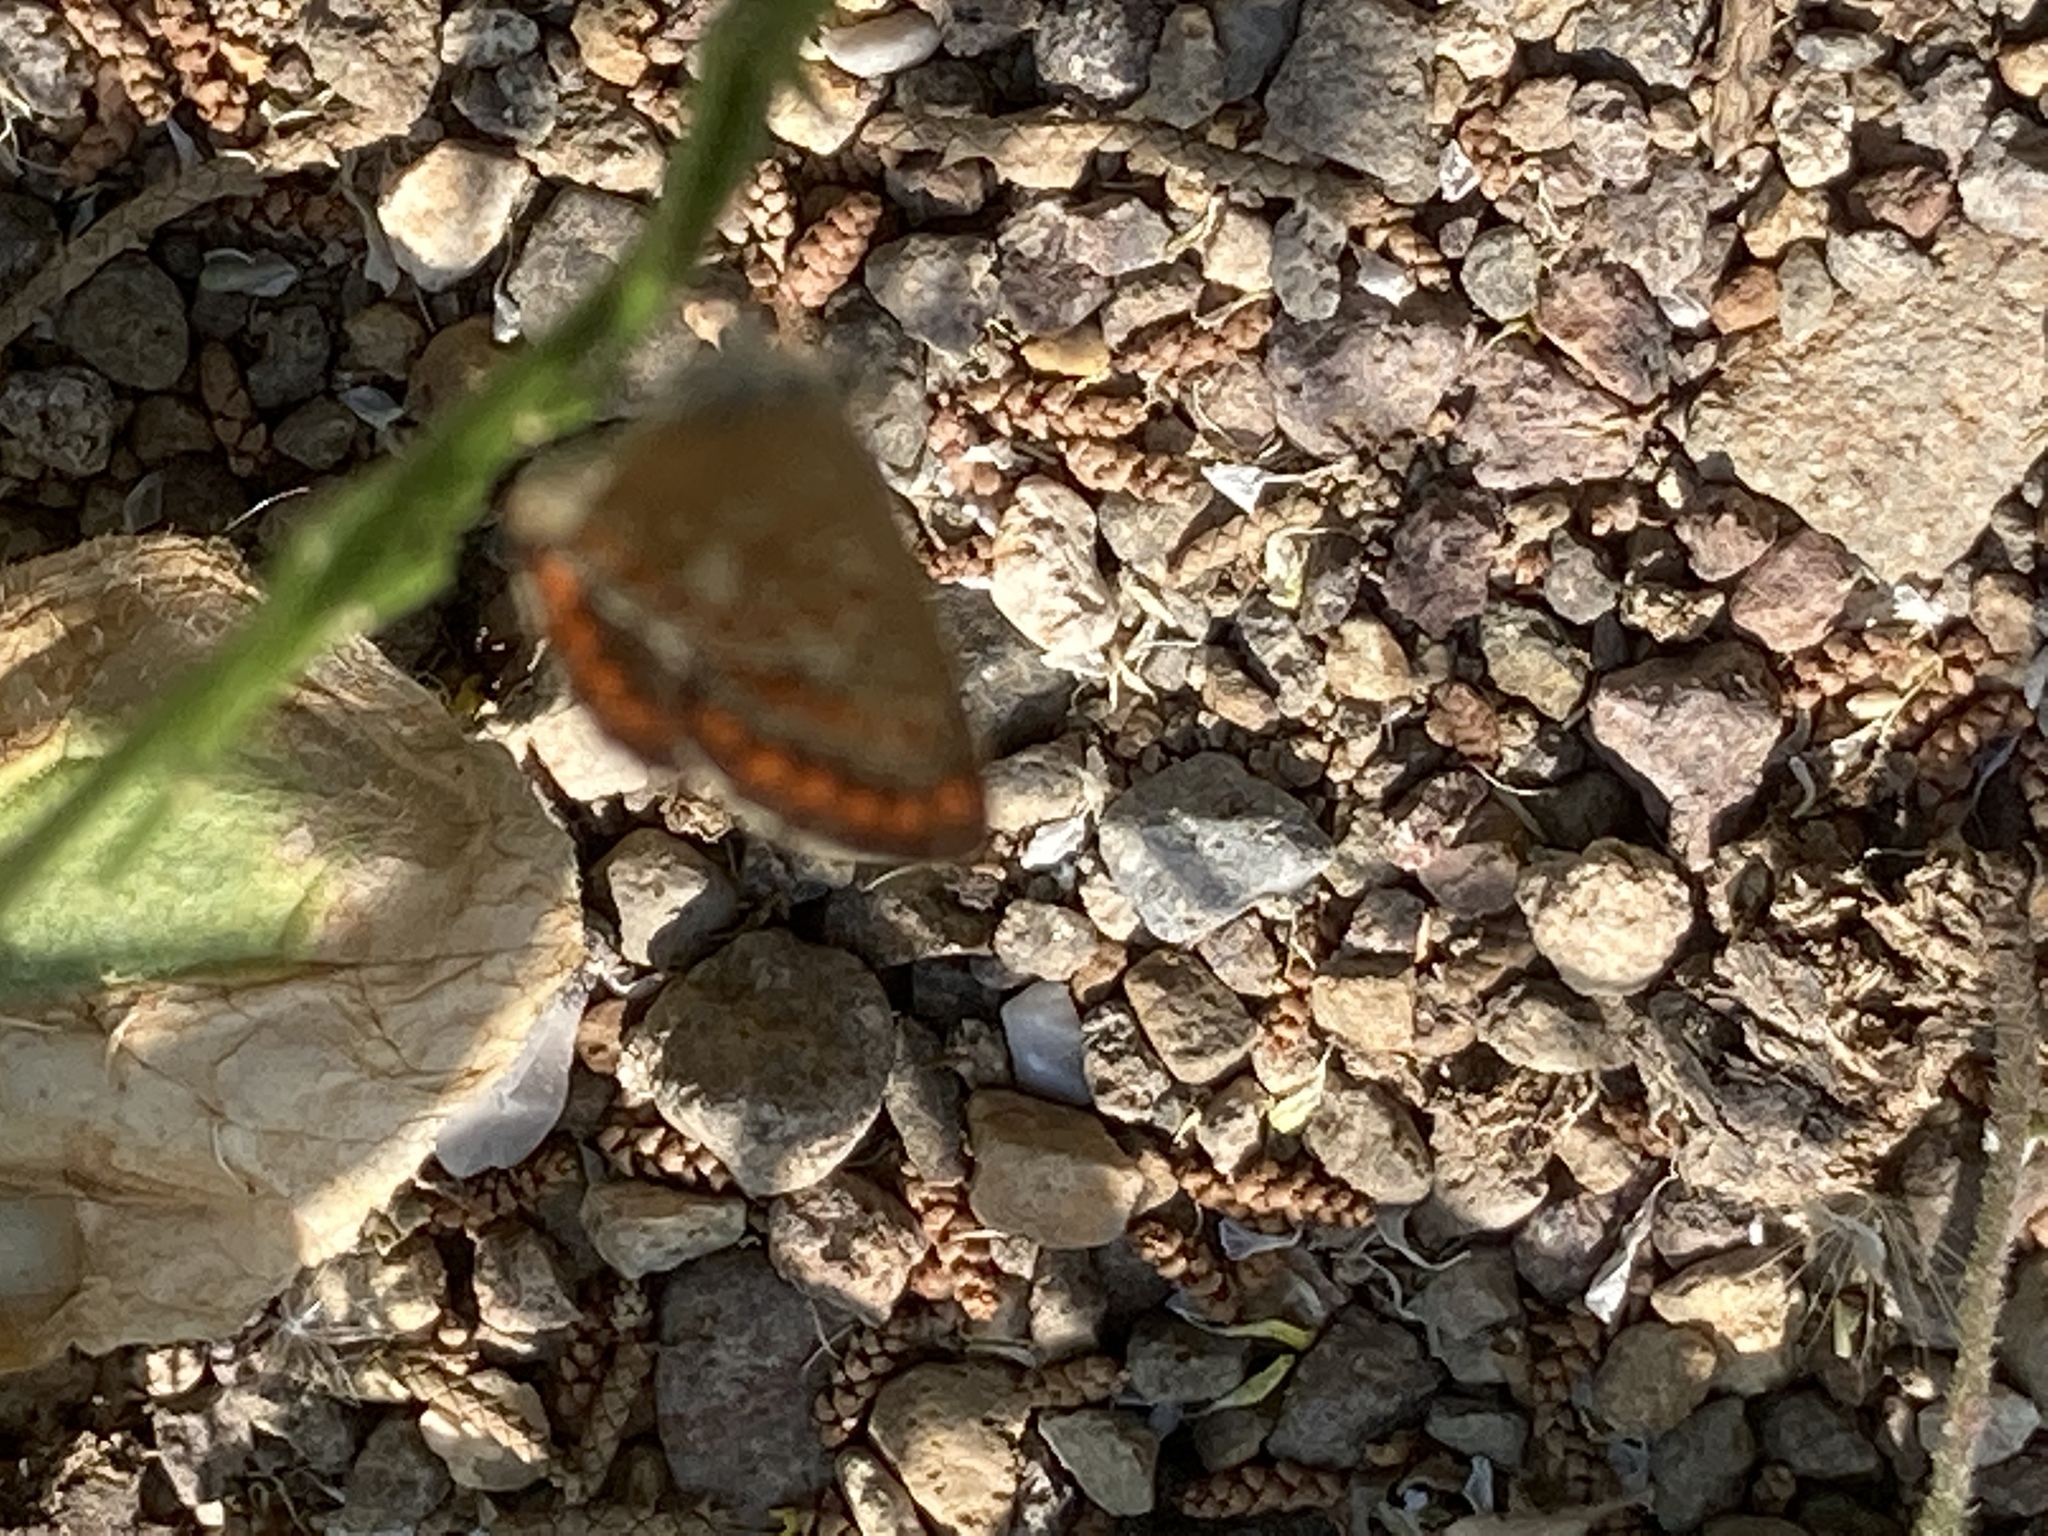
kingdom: Animalia
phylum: Arthropoda
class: Insecta
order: Lepidoptera
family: Lycaenidae
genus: Aricia
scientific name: Aricia agestis
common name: Brown argus
